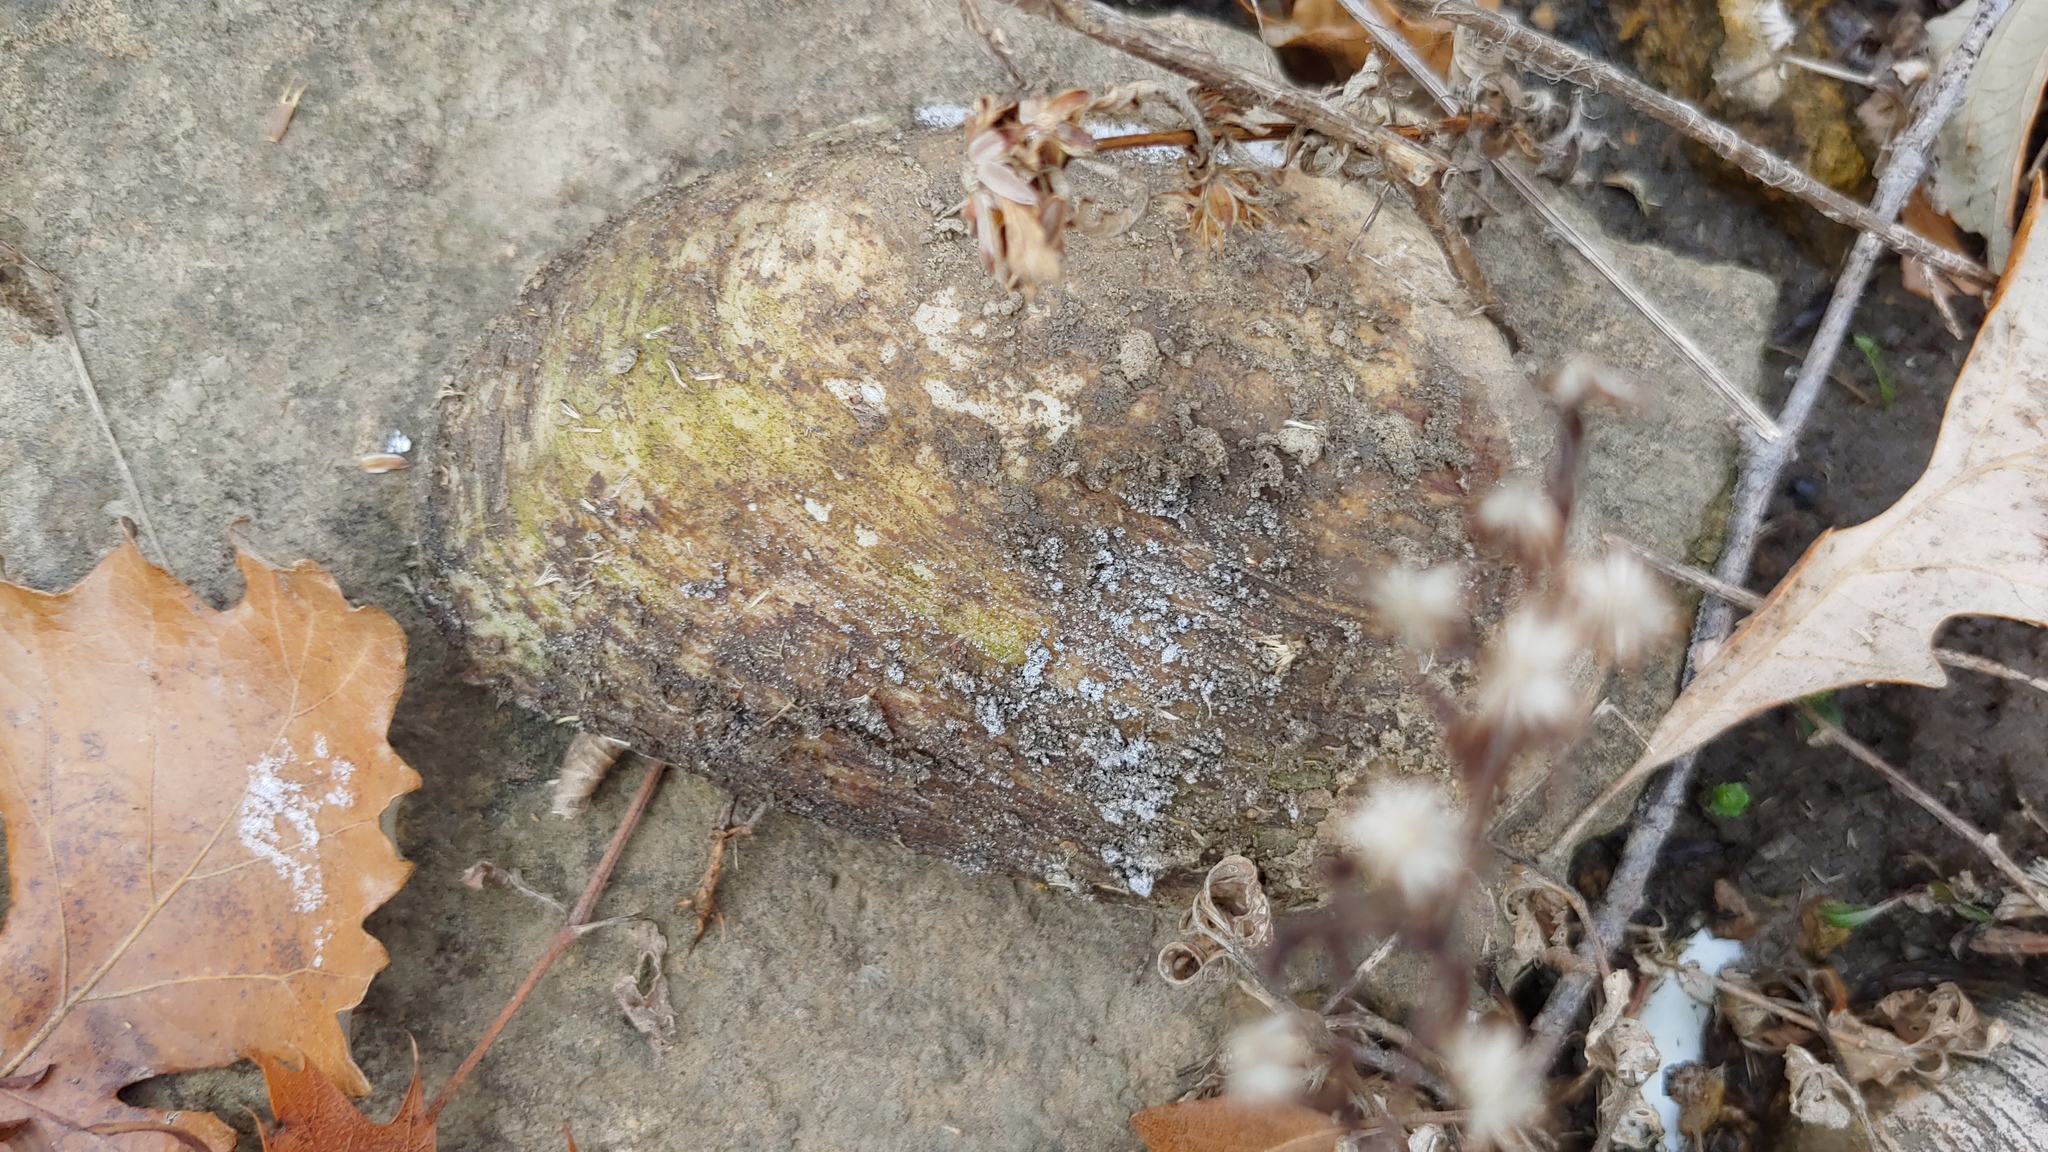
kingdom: Animalia
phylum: Mollusca
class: Bivalvia
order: Unionida
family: Unionidae
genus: Ortmanniana
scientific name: Ortmanniana ligamentina
